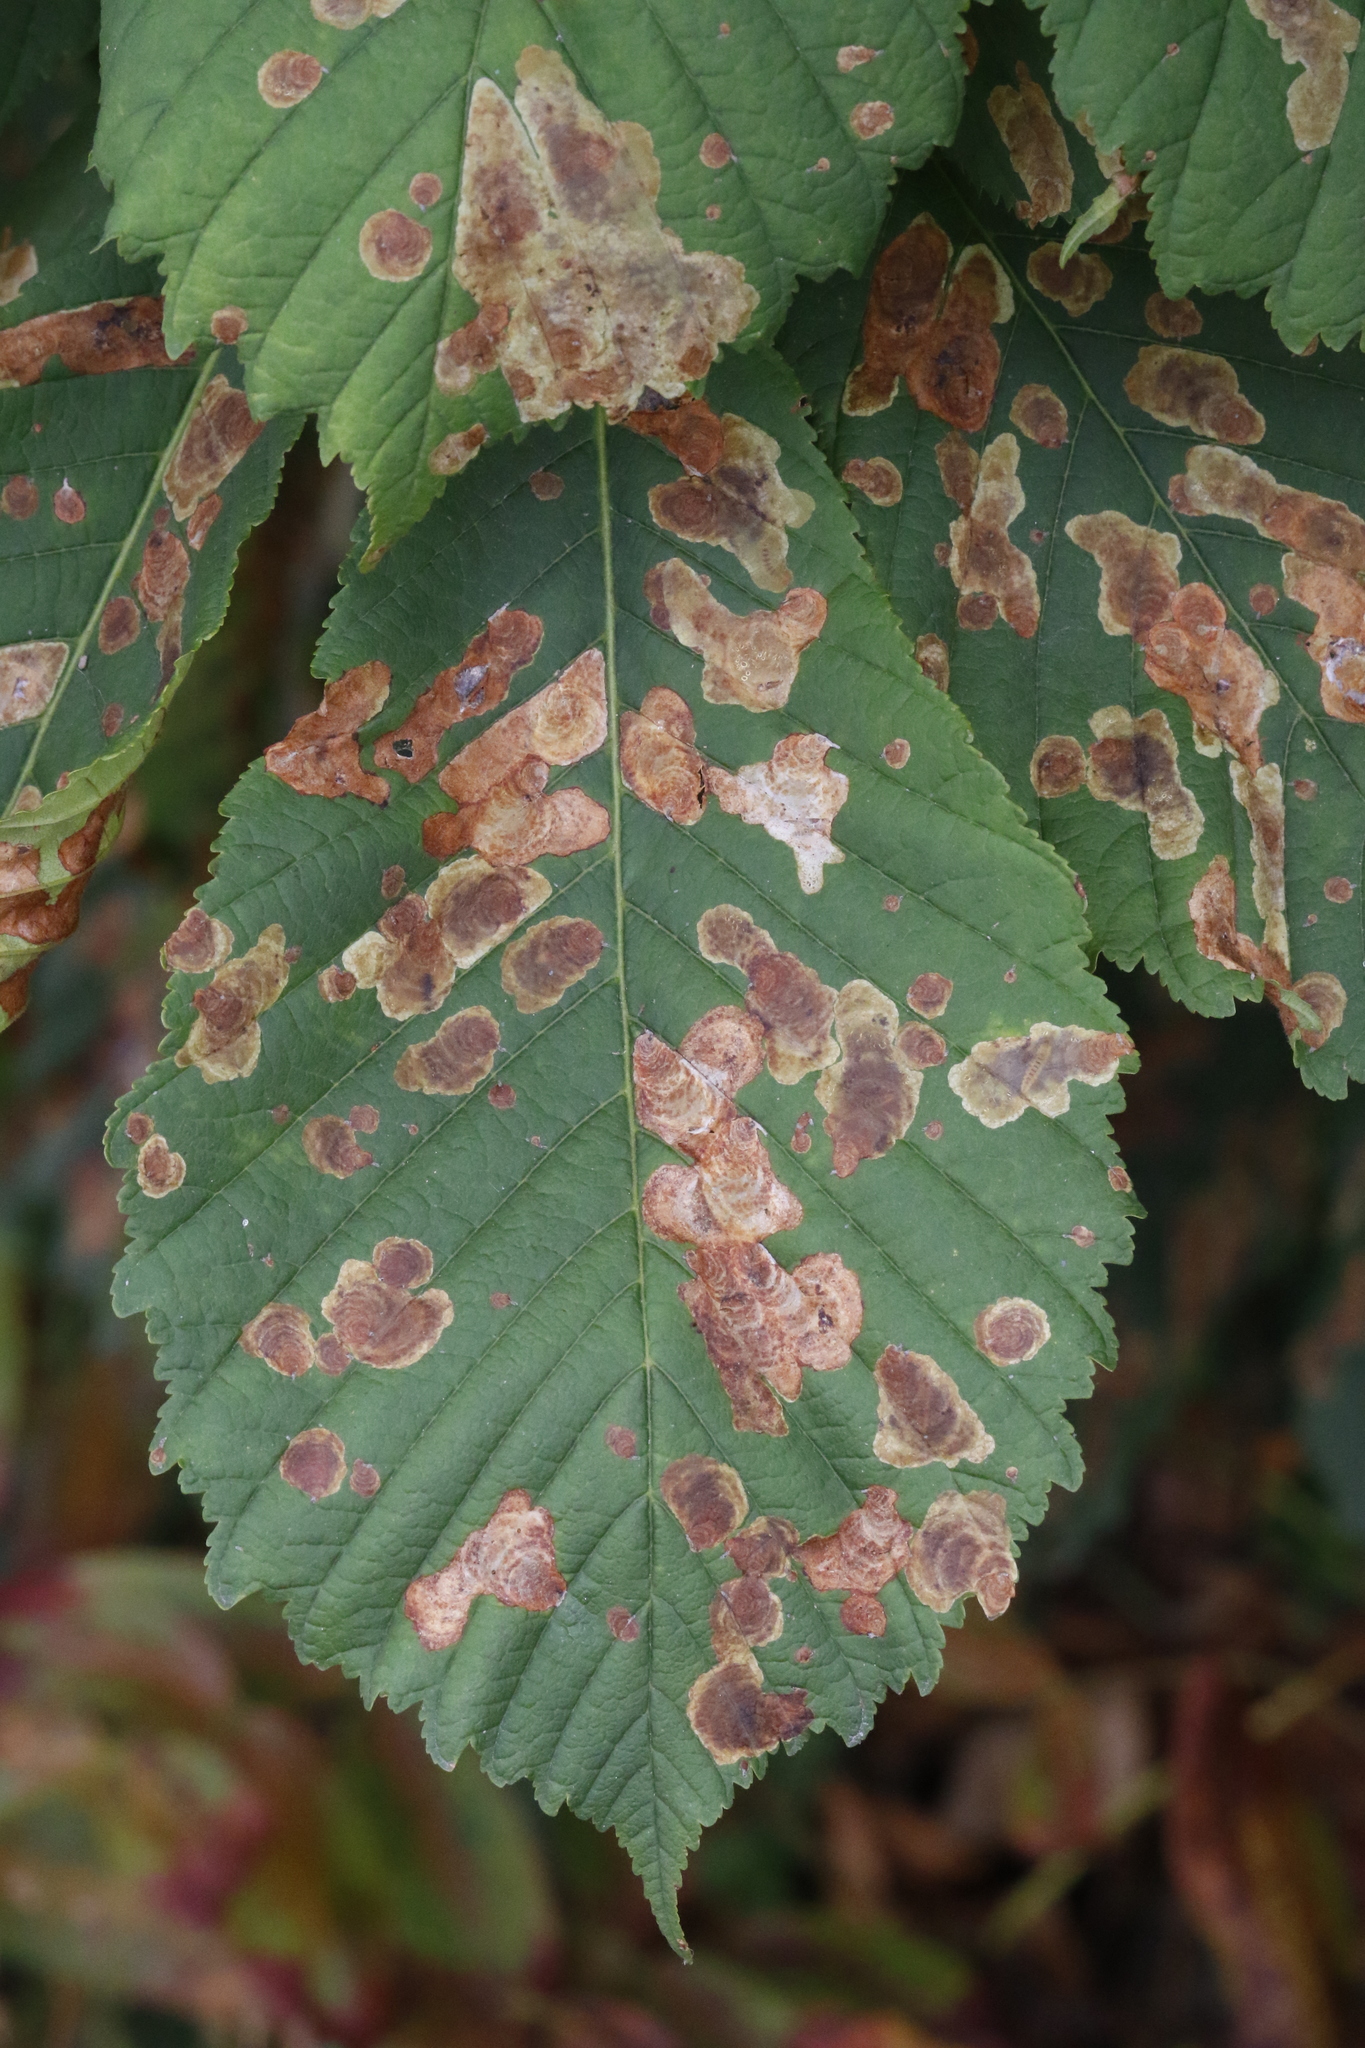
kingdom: Plantae
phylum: Tracheophyta
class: Magnoliopsida
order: Sapindales
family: Sapindaceae
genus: Aesculus
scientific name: Aesculus hippocastanum
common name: Horse-chestnut
